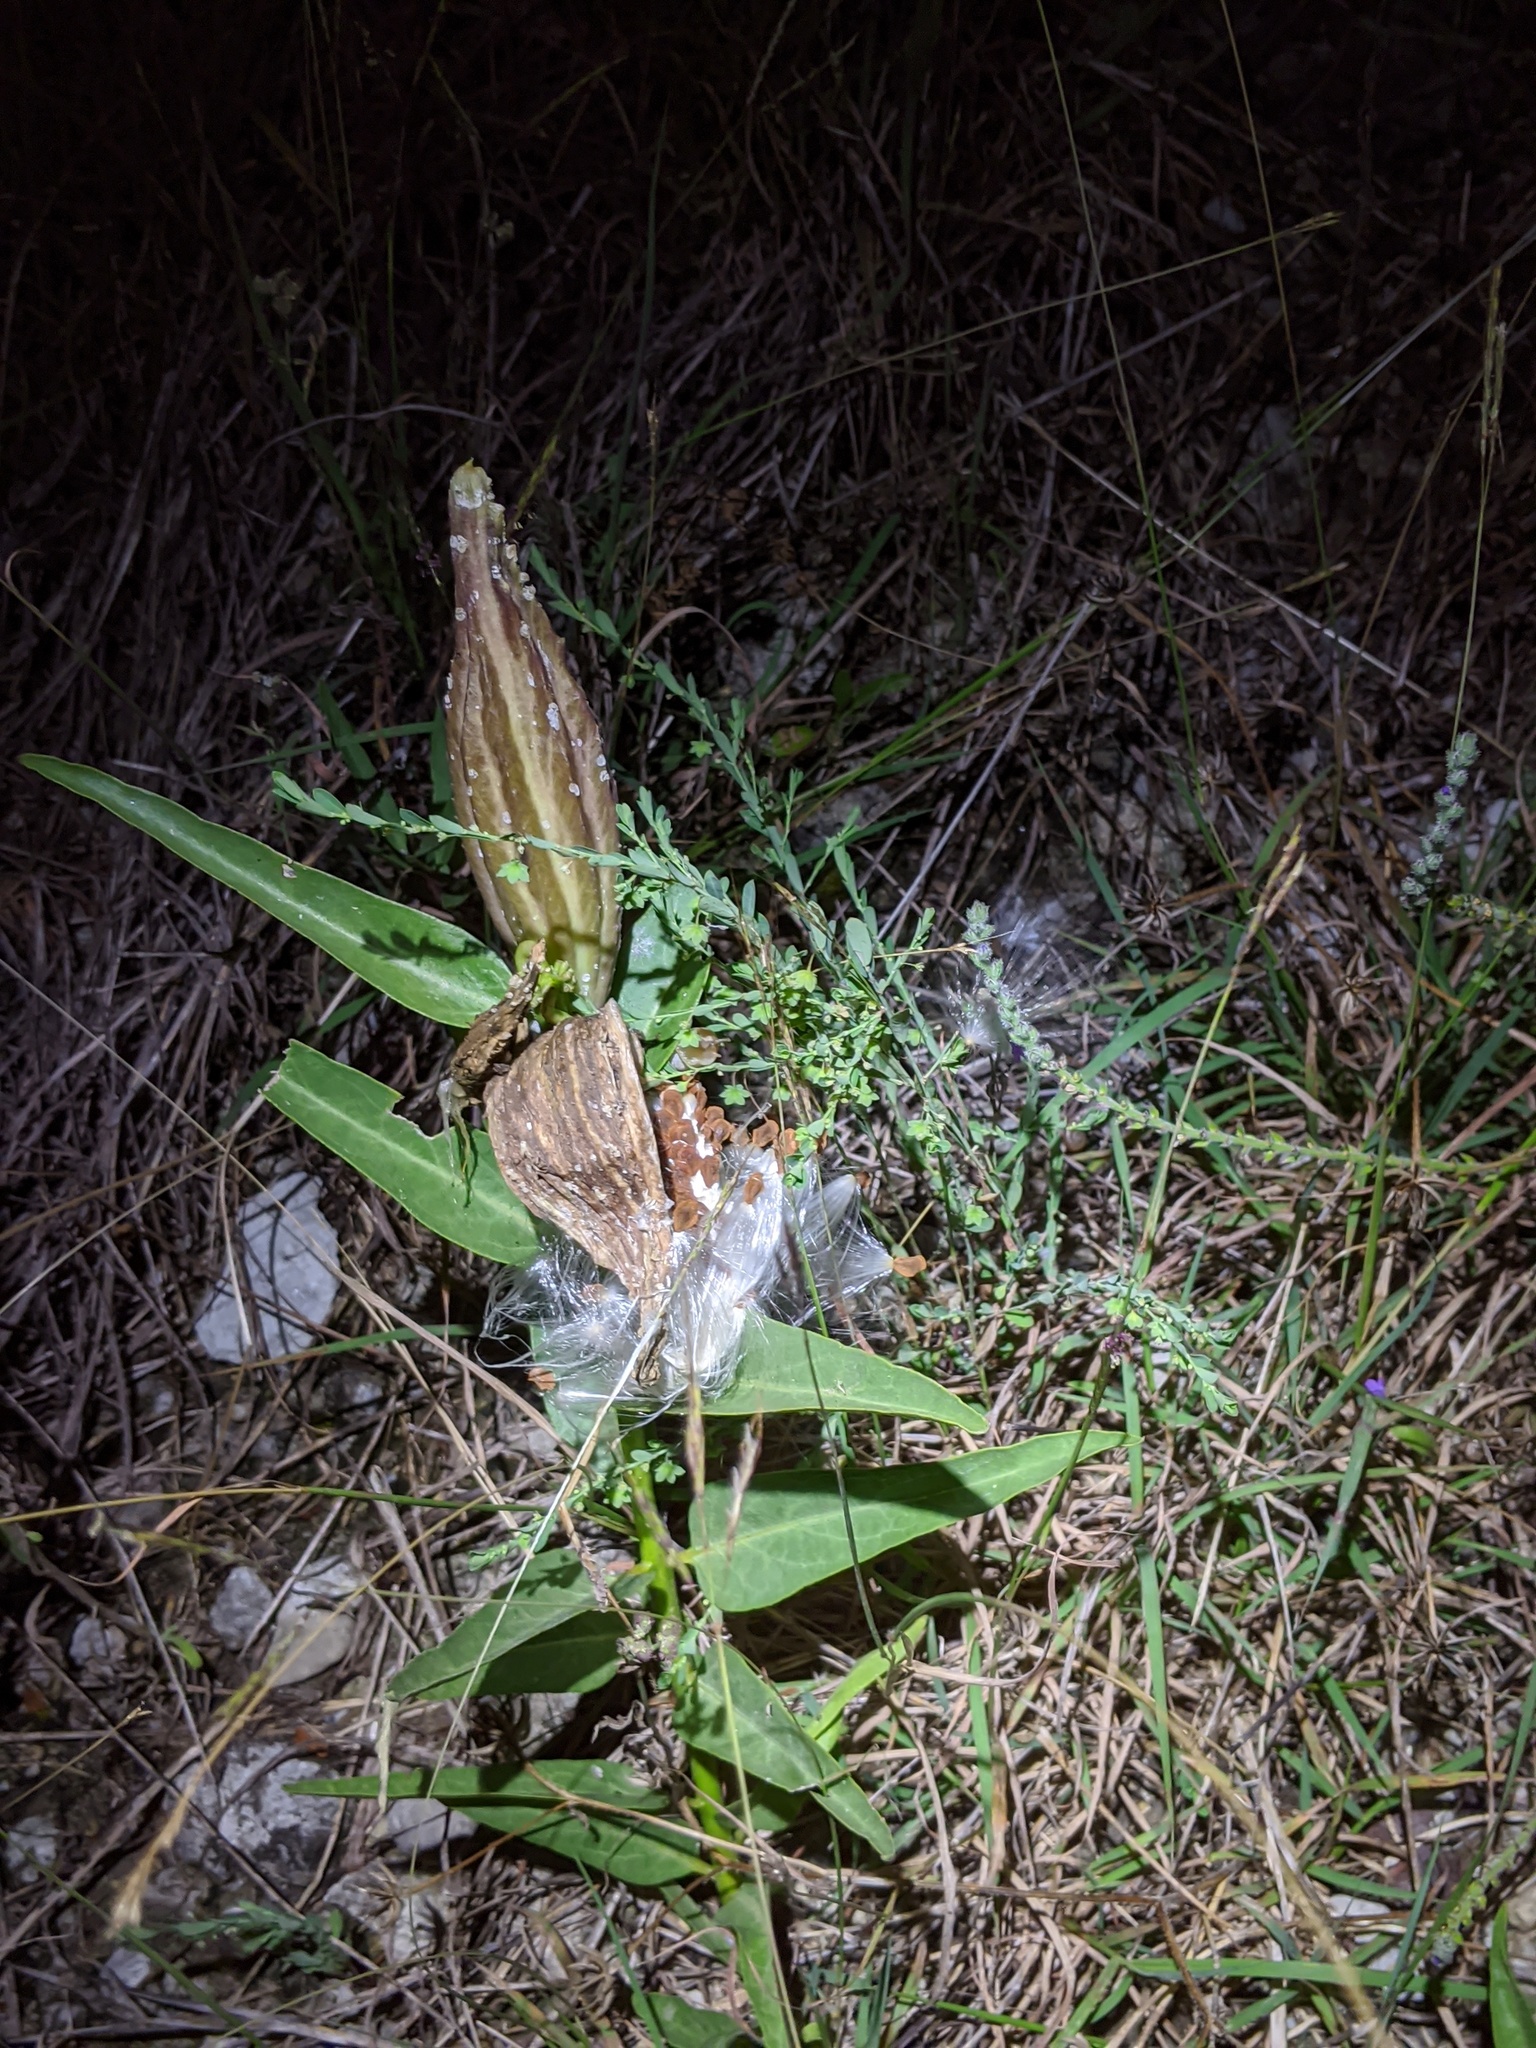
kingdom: Plantae
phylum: Tracheophyta
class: Magnoliopsida
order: Gentianales
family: Apocynaceae
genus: Asclepias
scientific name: Asclepias asperula
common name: Antelope horns
